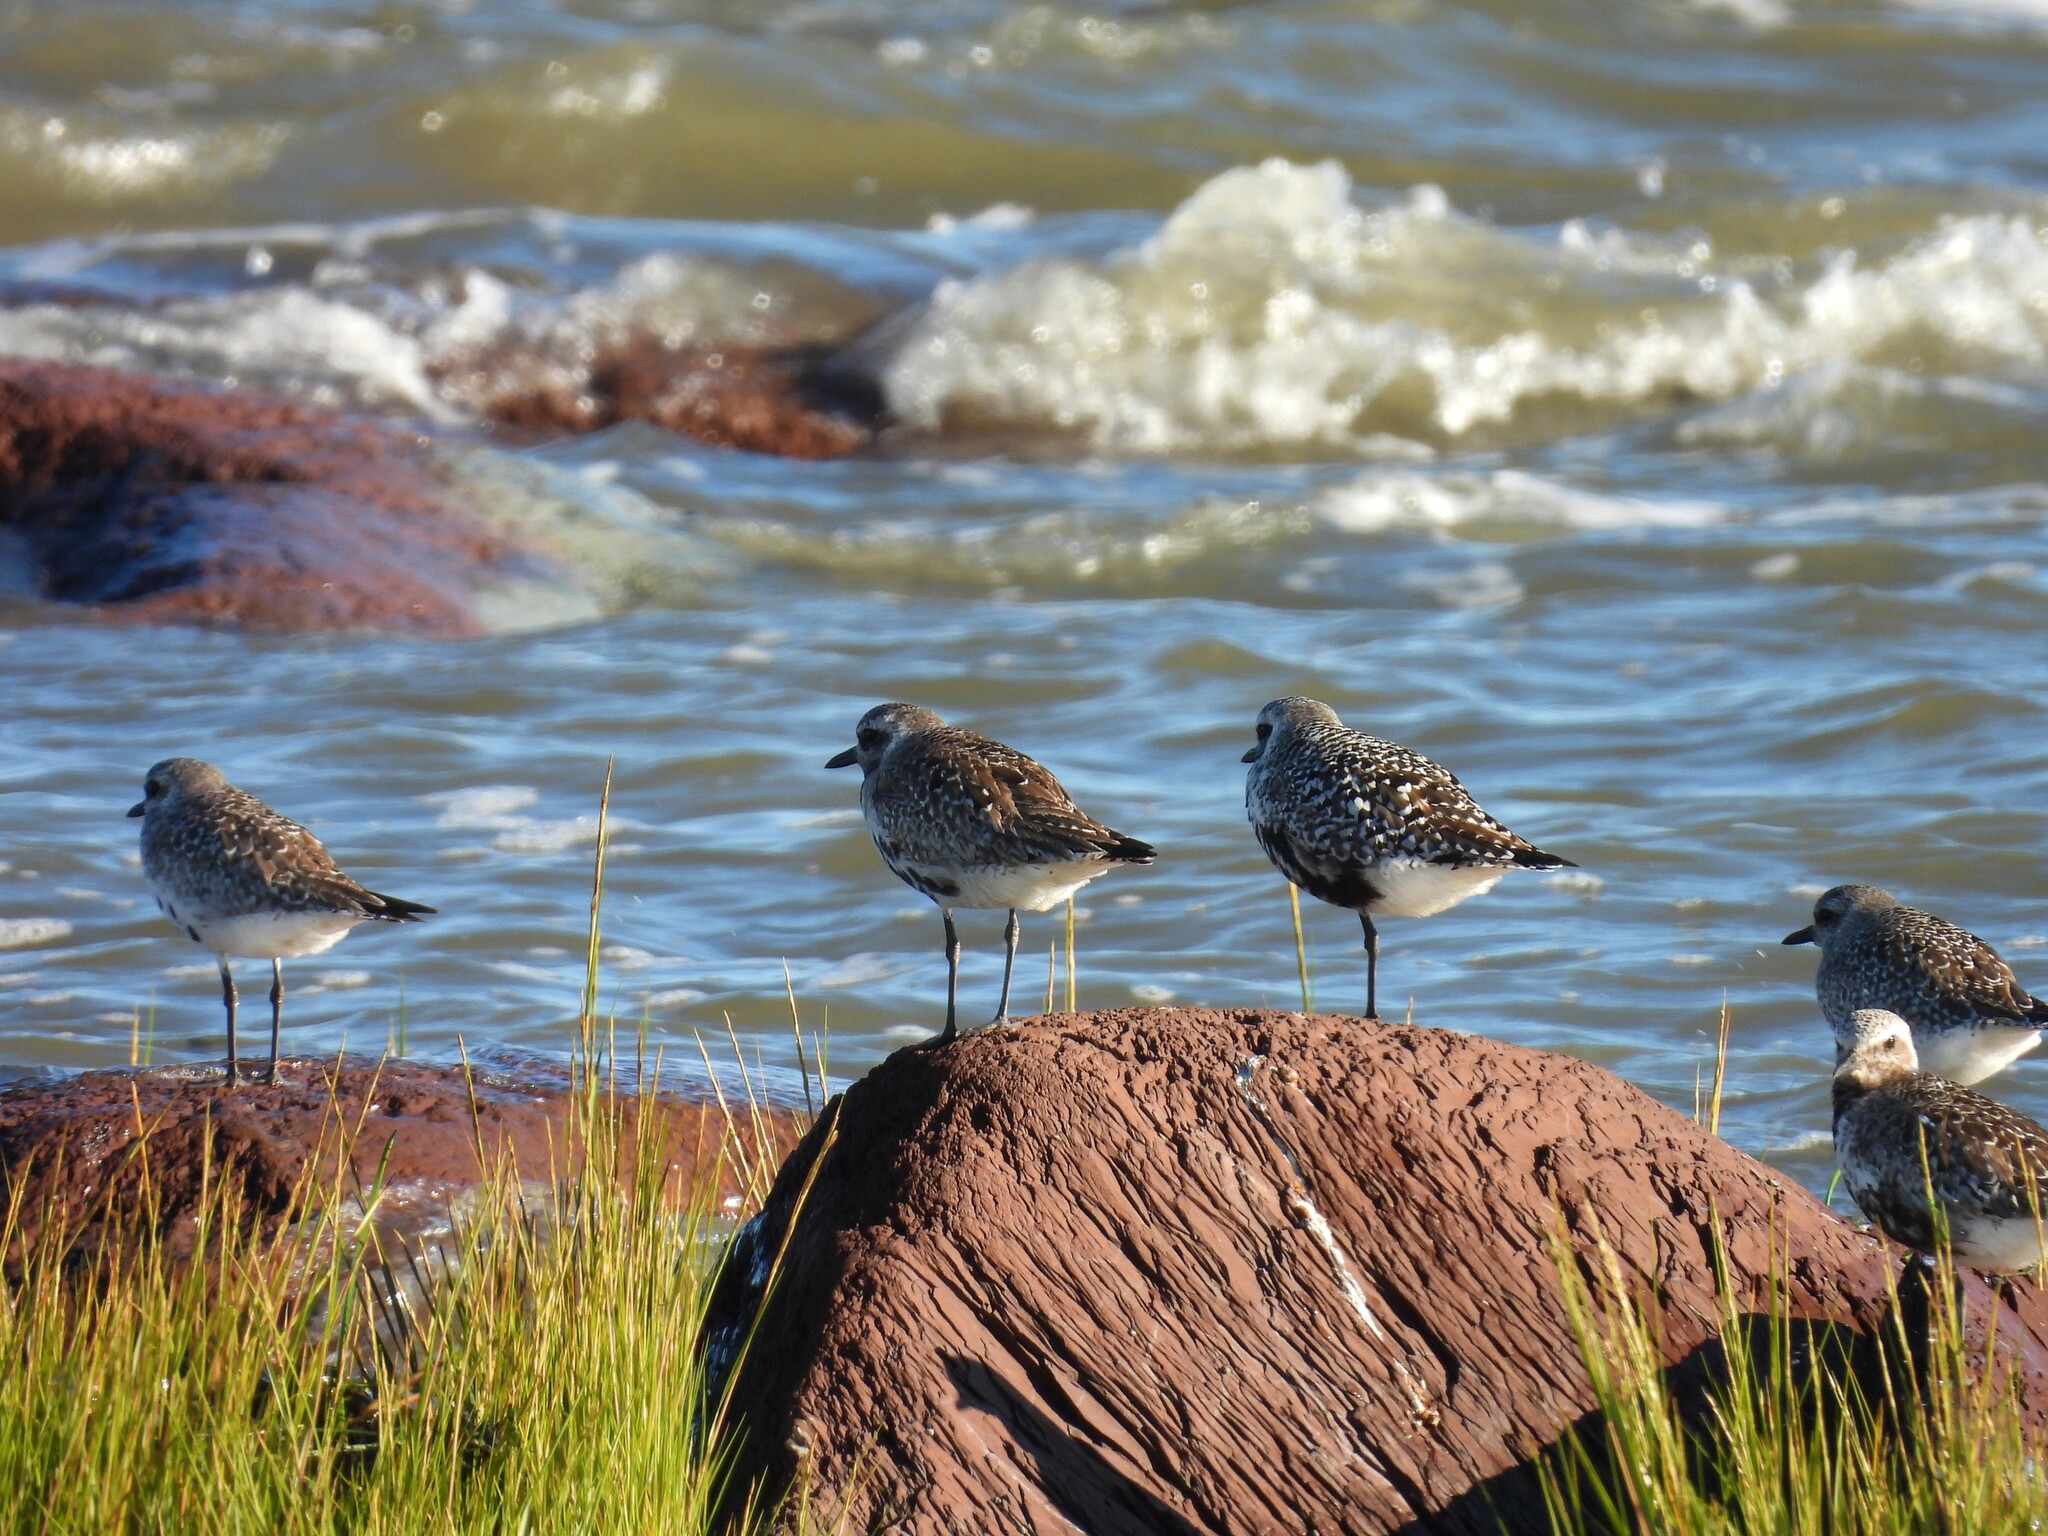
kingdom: Animalia
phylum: Chordata
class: Aves
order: Charadriiformes
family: Charadriidae
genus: Pluvialis
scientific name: Pluvialis squatarola
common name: Grey plover
